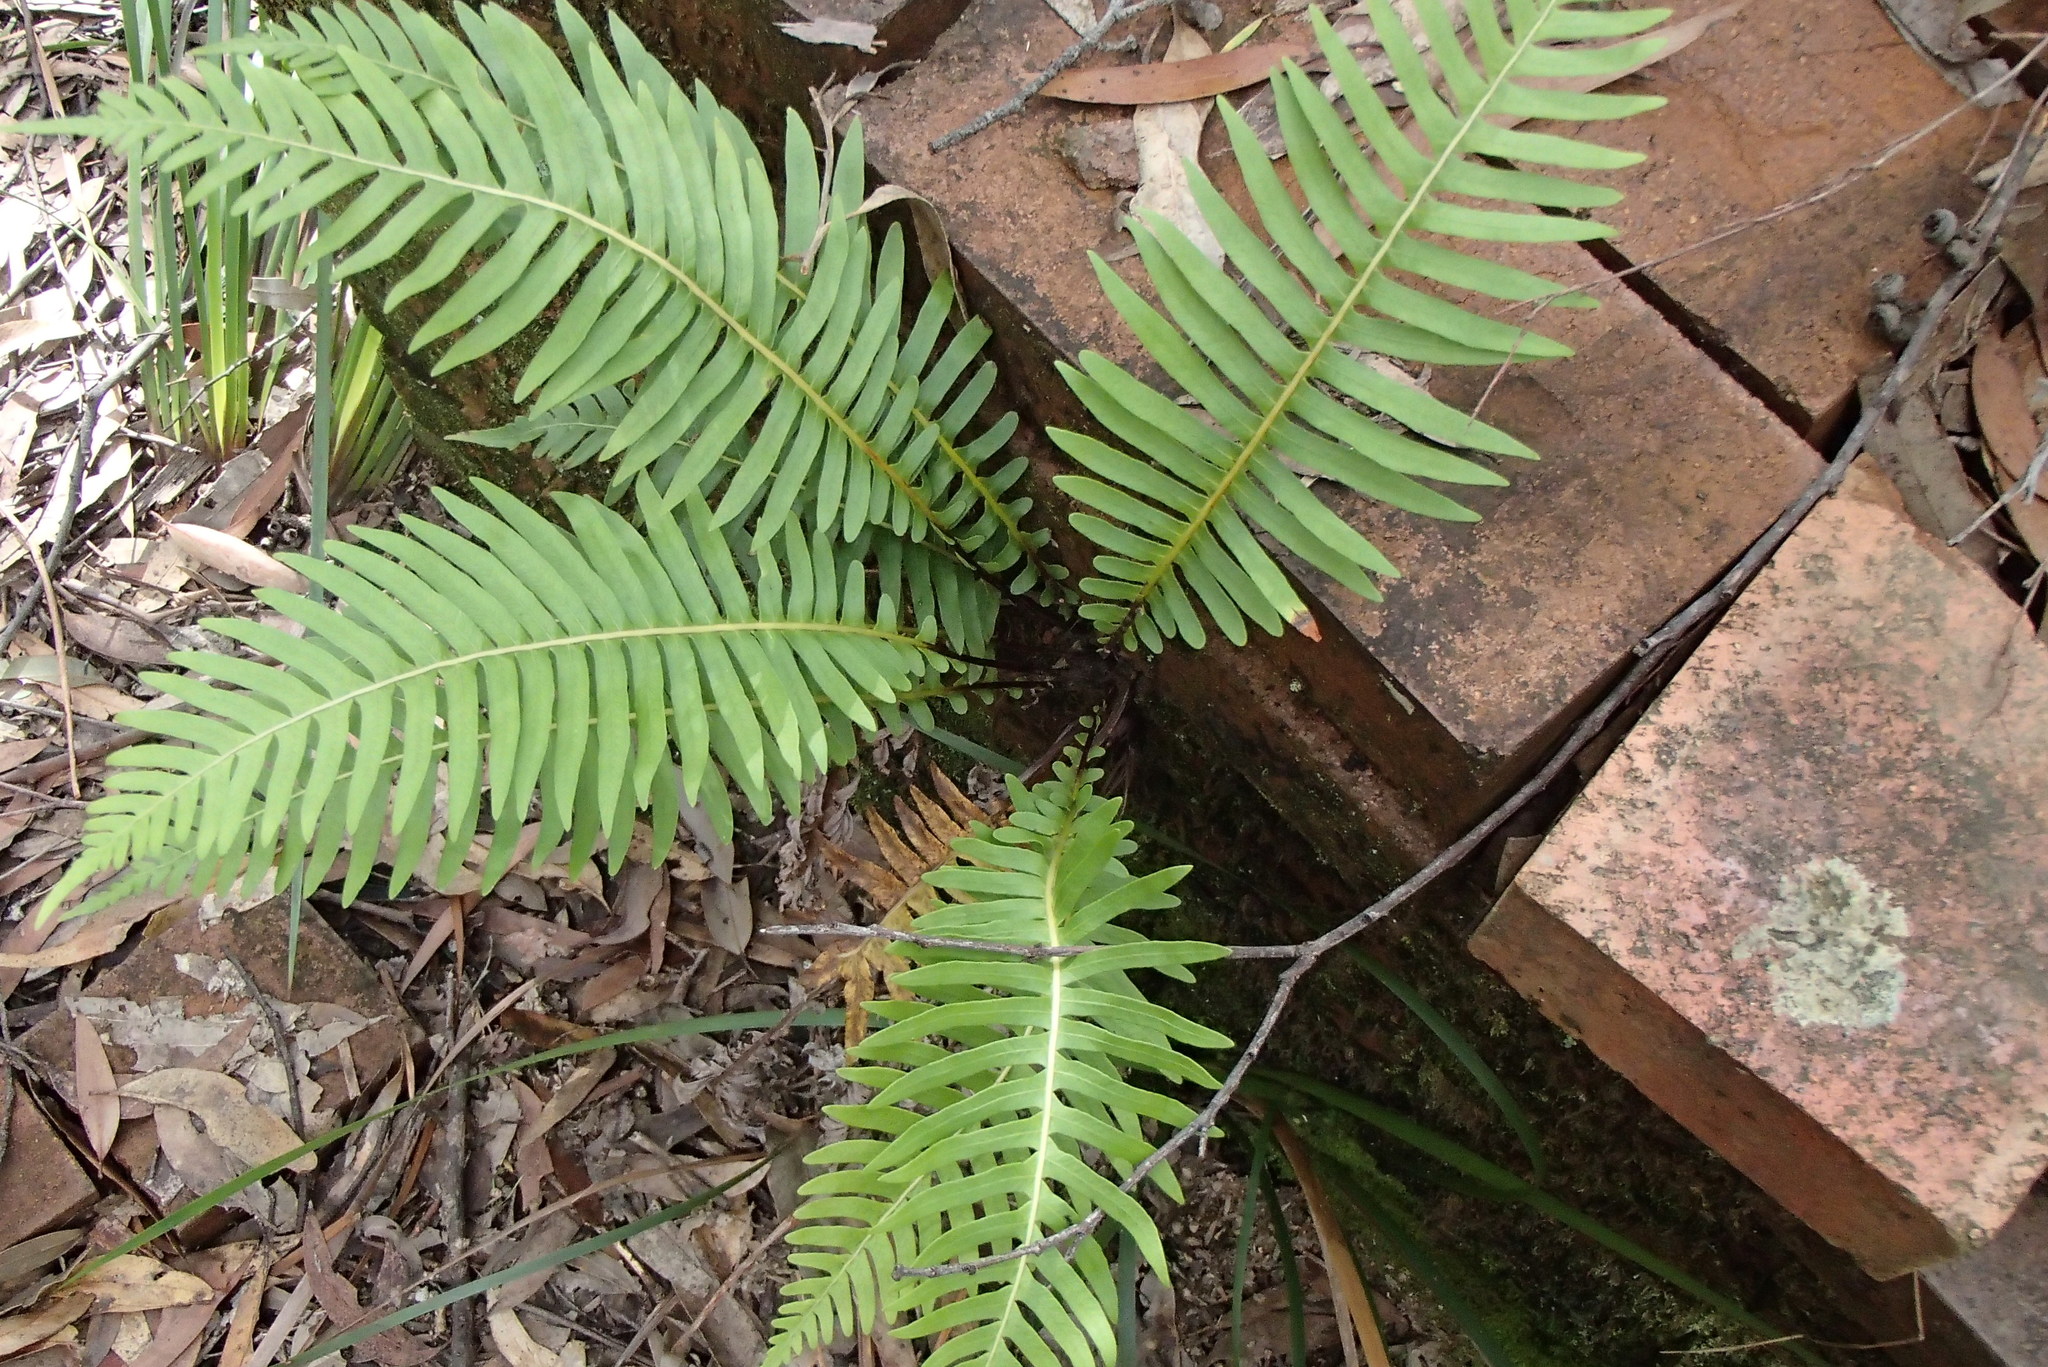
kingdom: Plantae
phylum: Tracheophyta
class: Polypodiopsida
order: Polypodiales
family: Blechnaceae
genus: Lomaria
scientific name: Lomaria nuda
